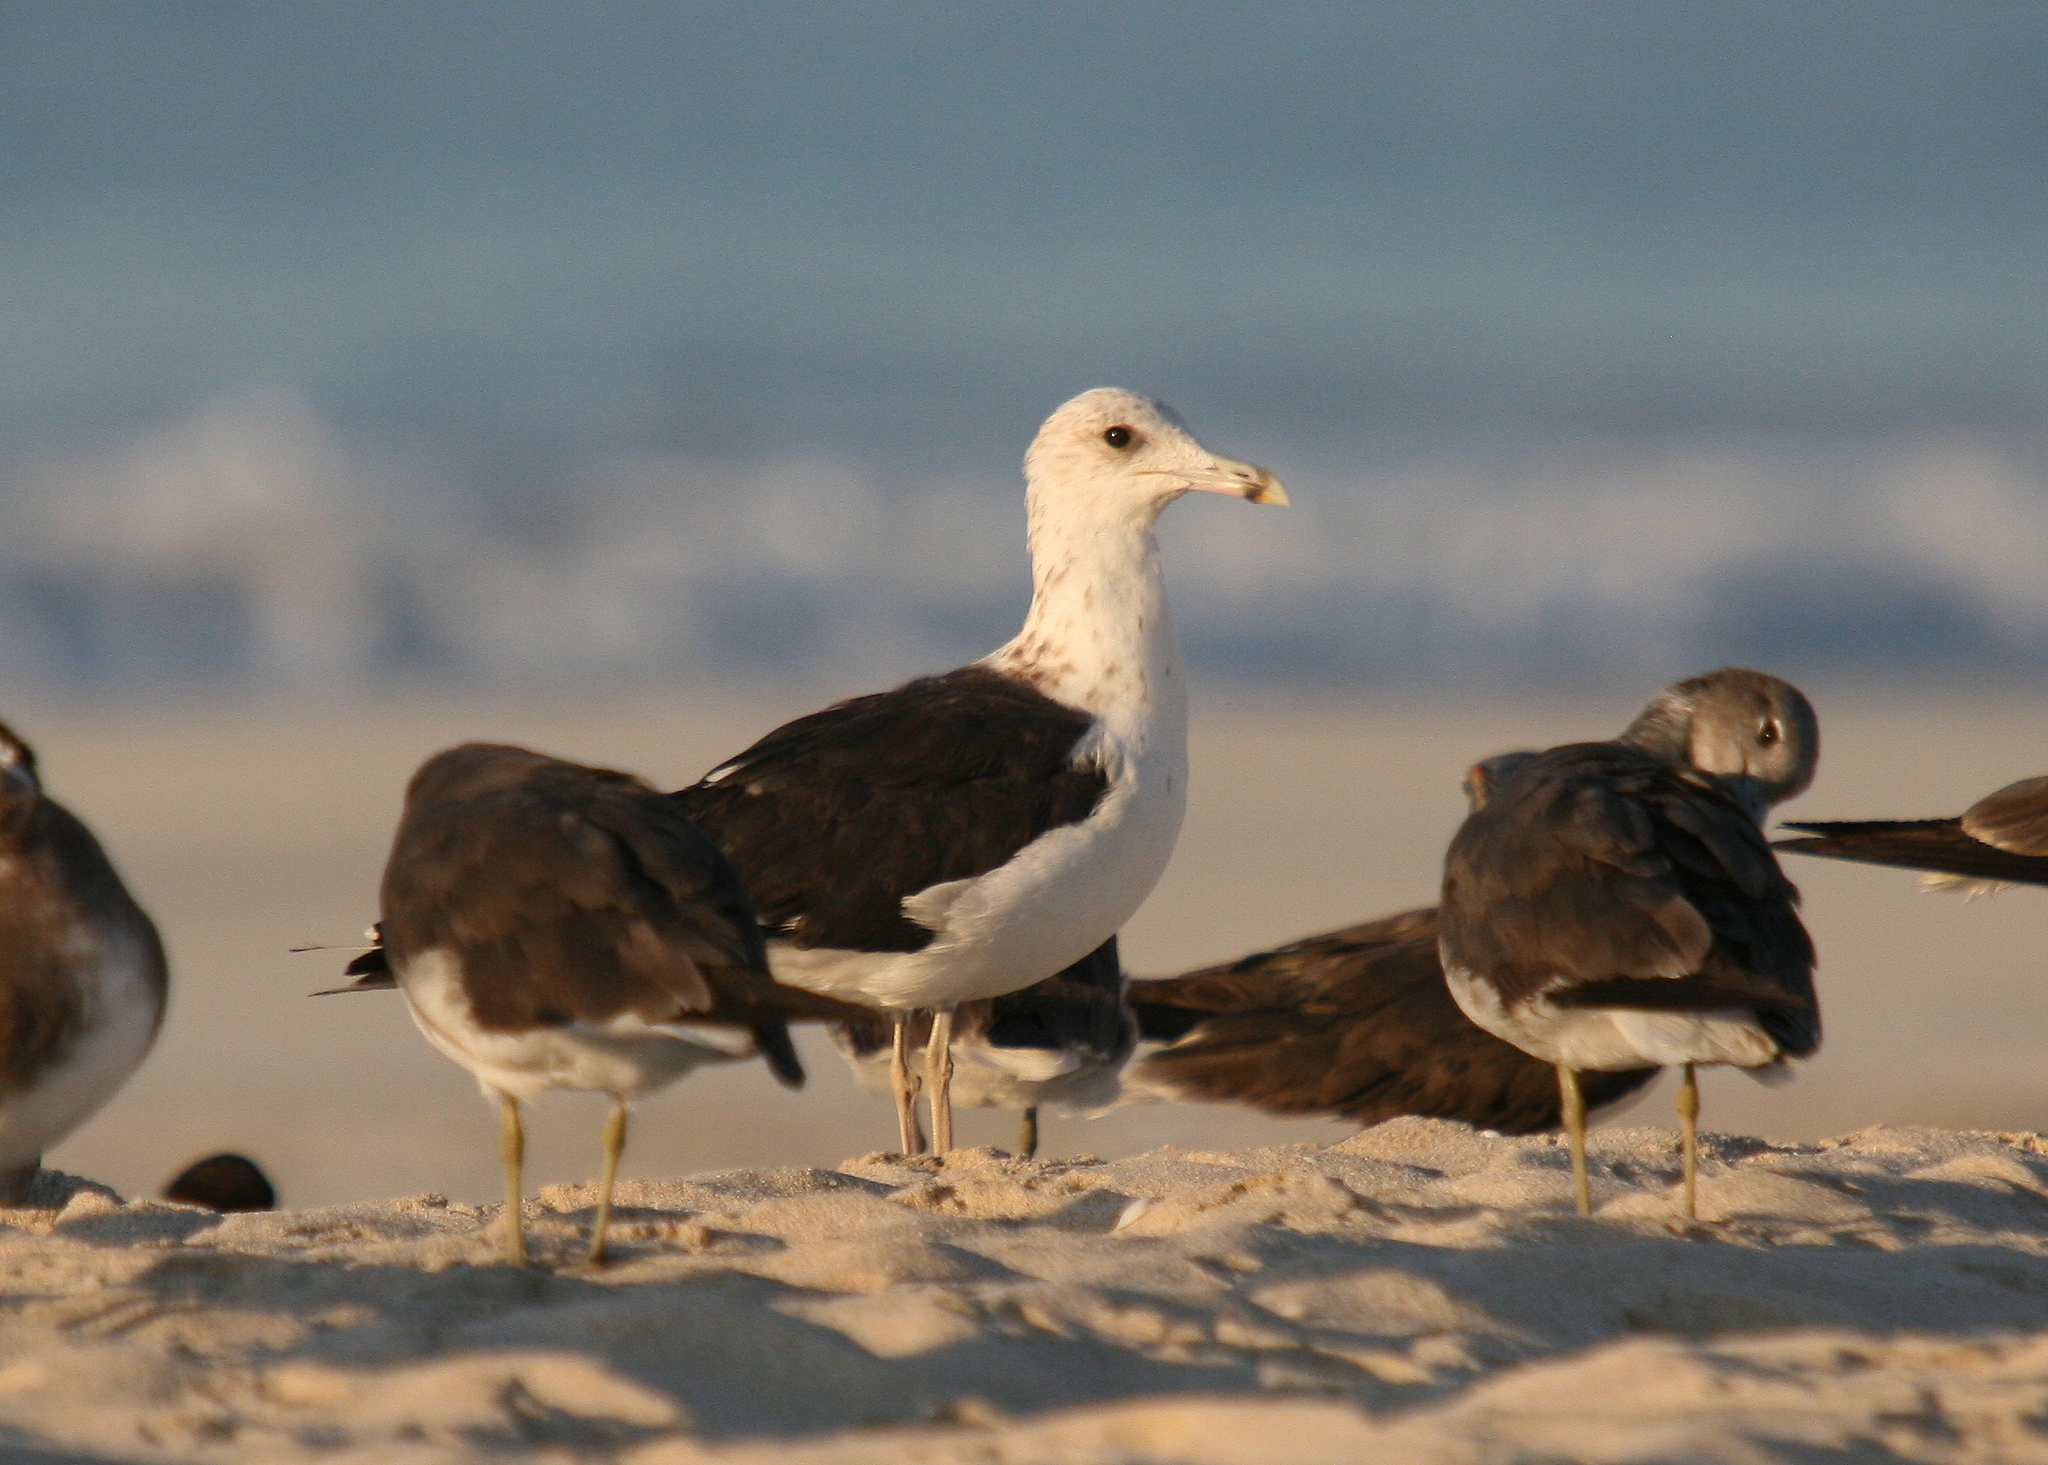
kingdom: Animalia
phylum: Chordata
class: Aves
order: Charadriiformes
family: Laridae
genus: Larus
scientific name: Larus fuscus
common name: Lesser black-backed gull
